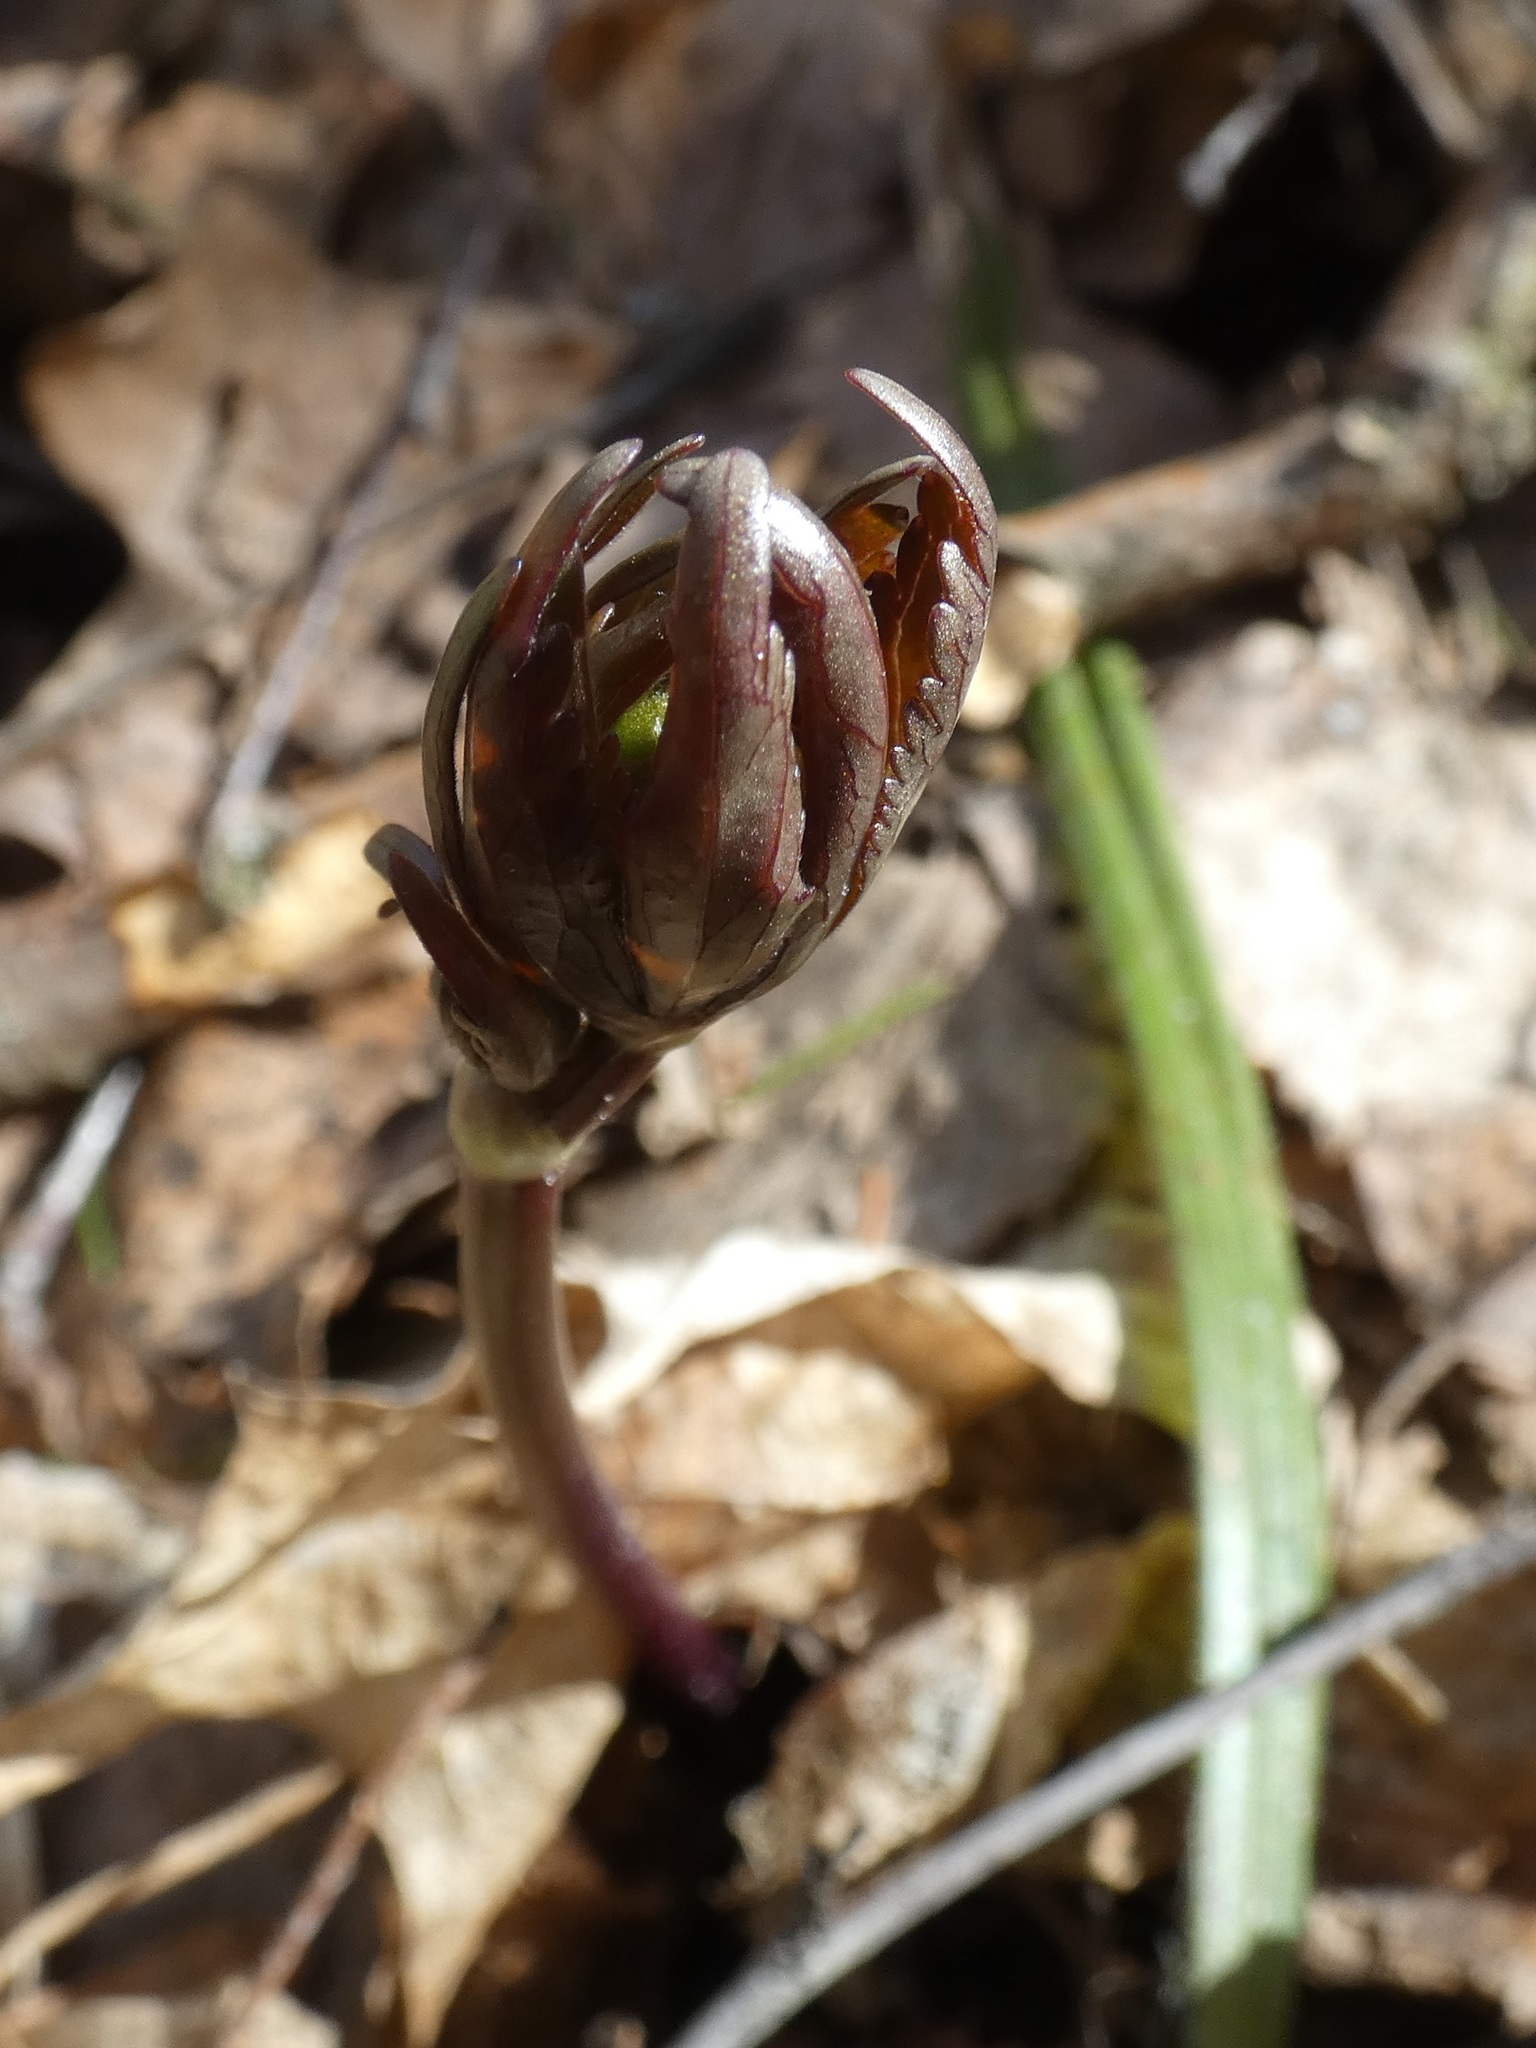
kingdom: Plantae
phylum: Tracheophyta
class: Magnoliopsida
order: Ranunculales
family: Ranunculaceae
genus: Anemone
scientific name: Anemone ranunculoides
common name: Yellow anemone
